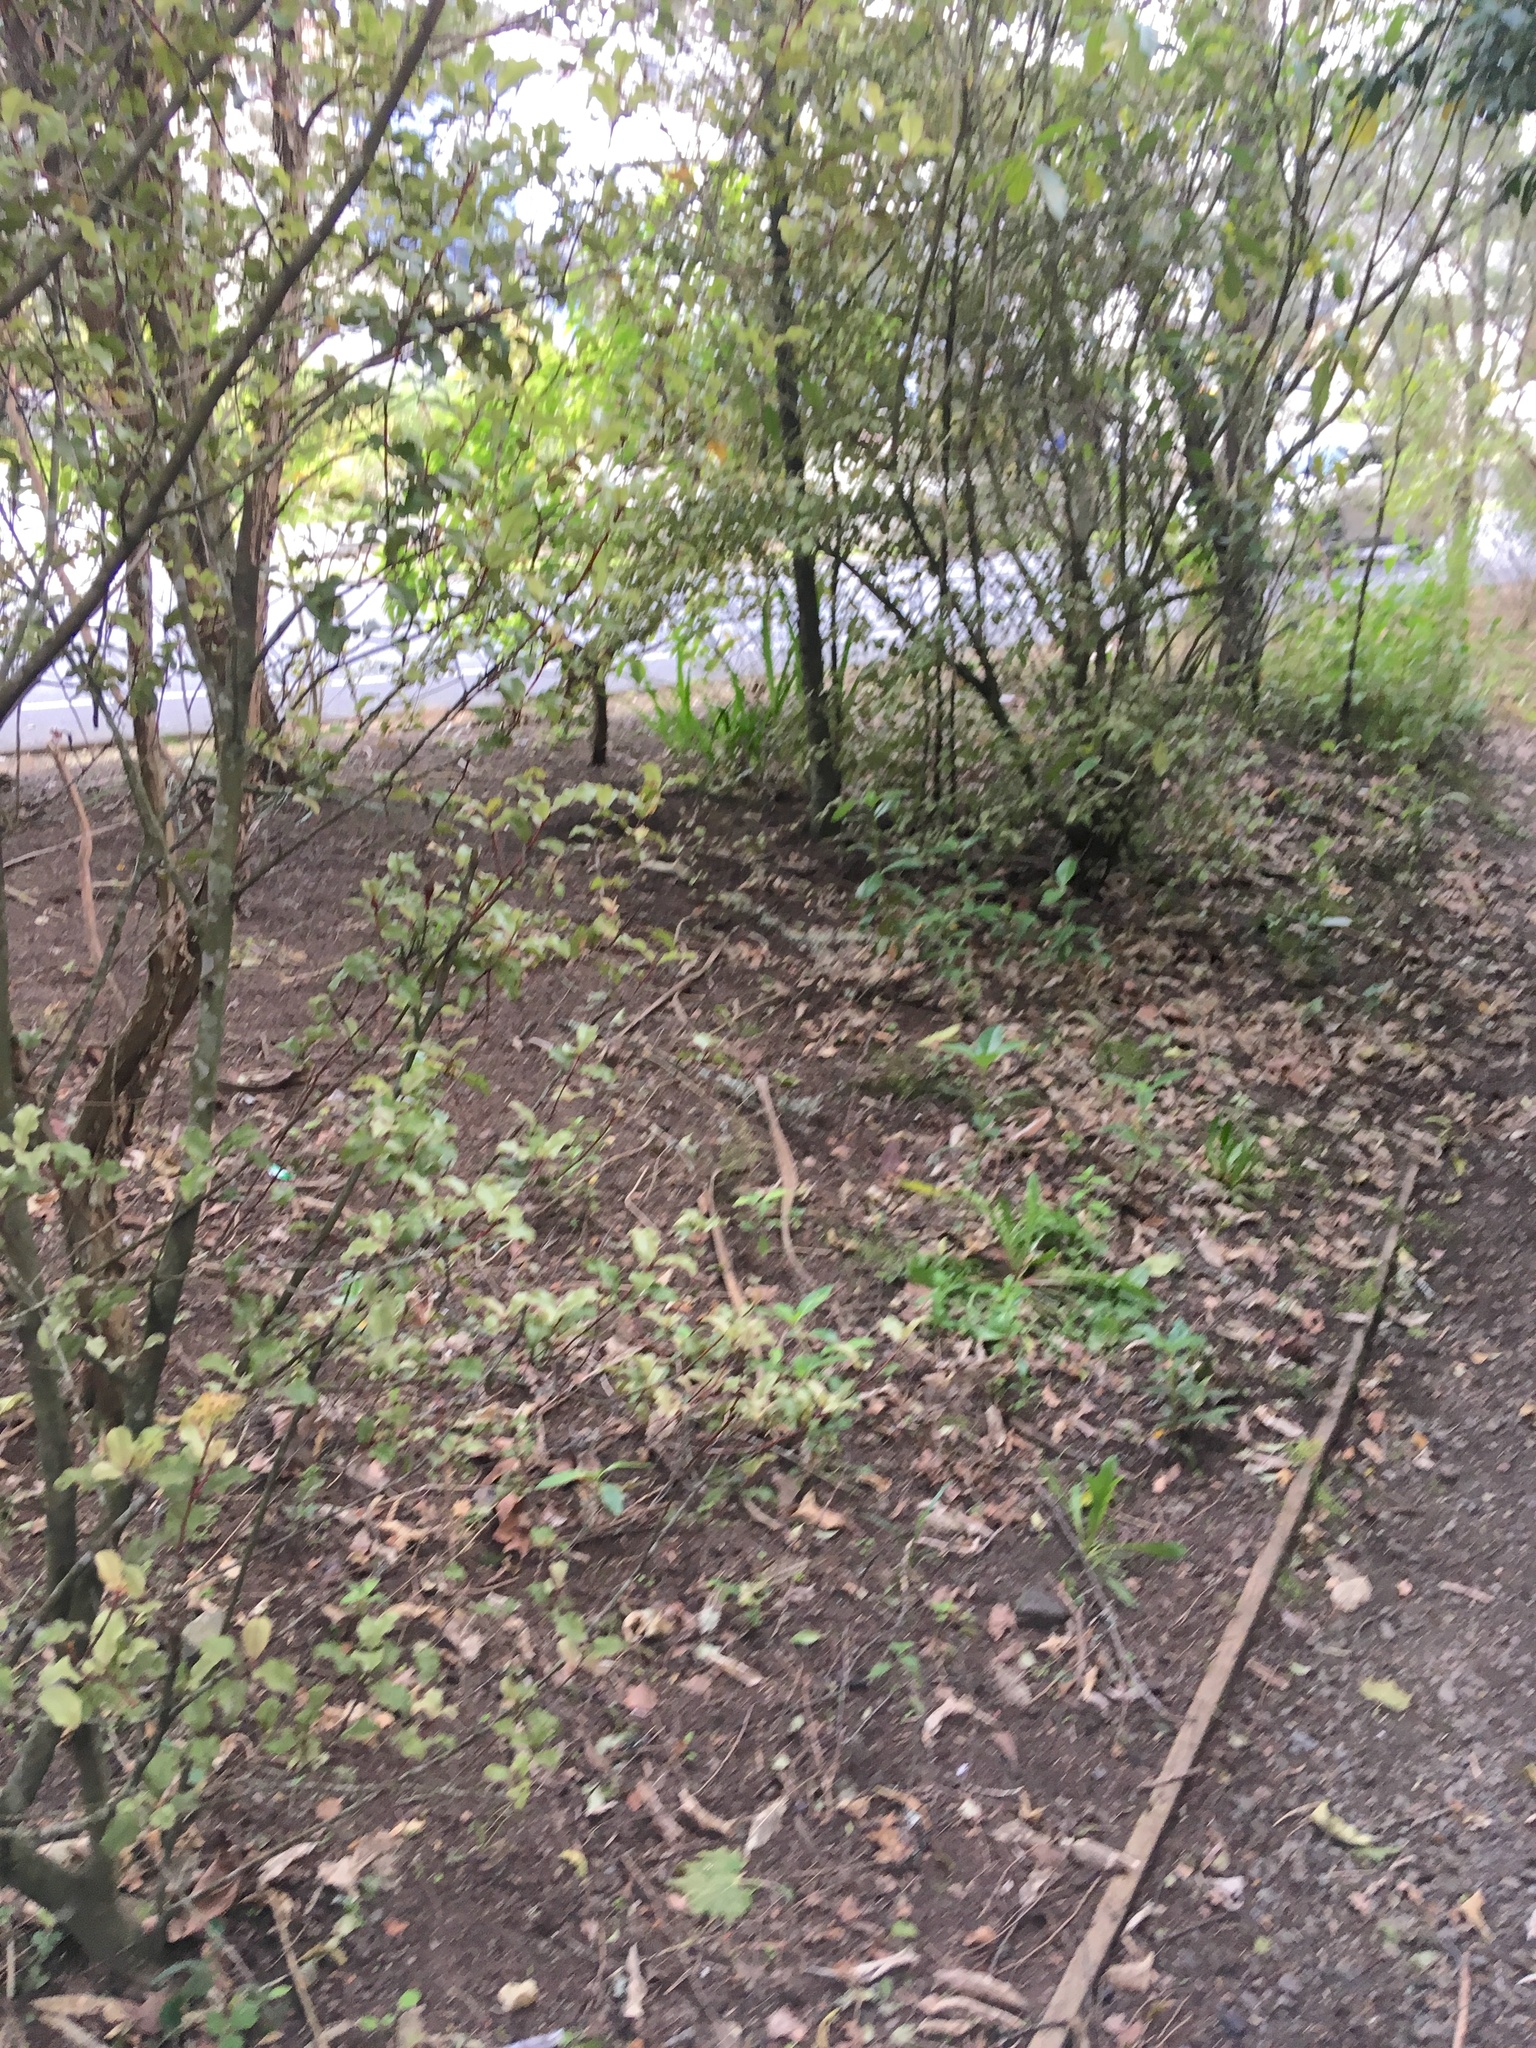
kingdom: Plantae
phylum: Tracheophyta
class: Magnoliopsida
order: Ericales
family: Primulaceae
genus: Myrsine
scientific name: Myrsine australis
